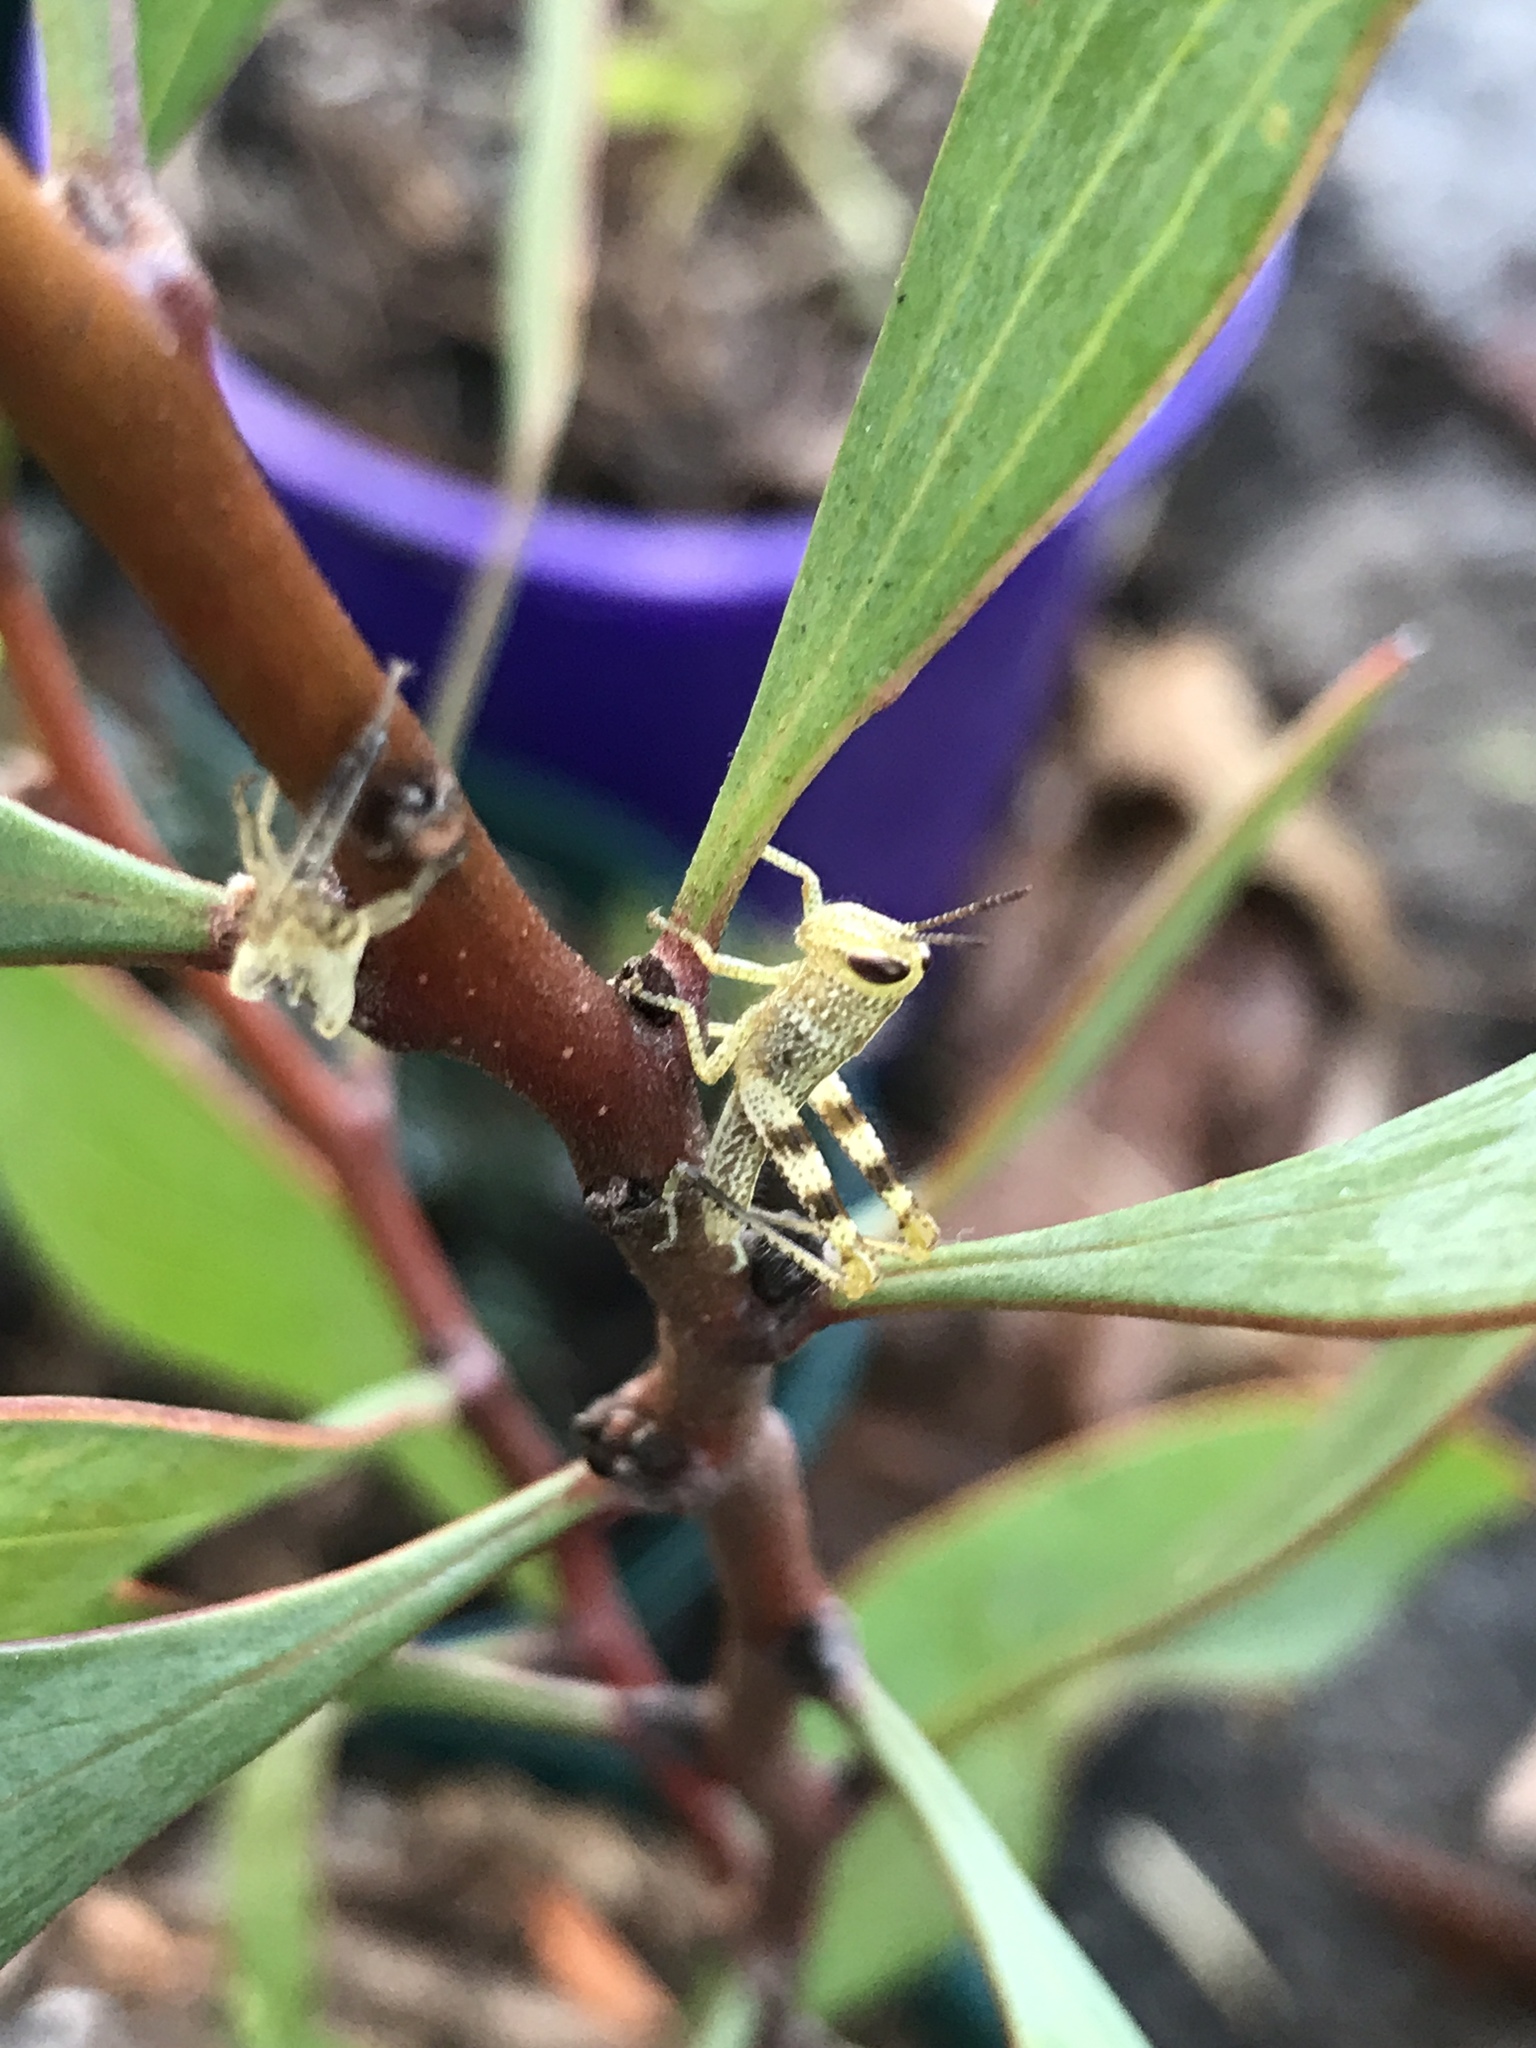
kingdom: Animalia
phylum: Arthropoda
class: Insecta
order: Orthoptera
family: Acrididae
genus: Valanga
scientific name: Valanga irregularis
